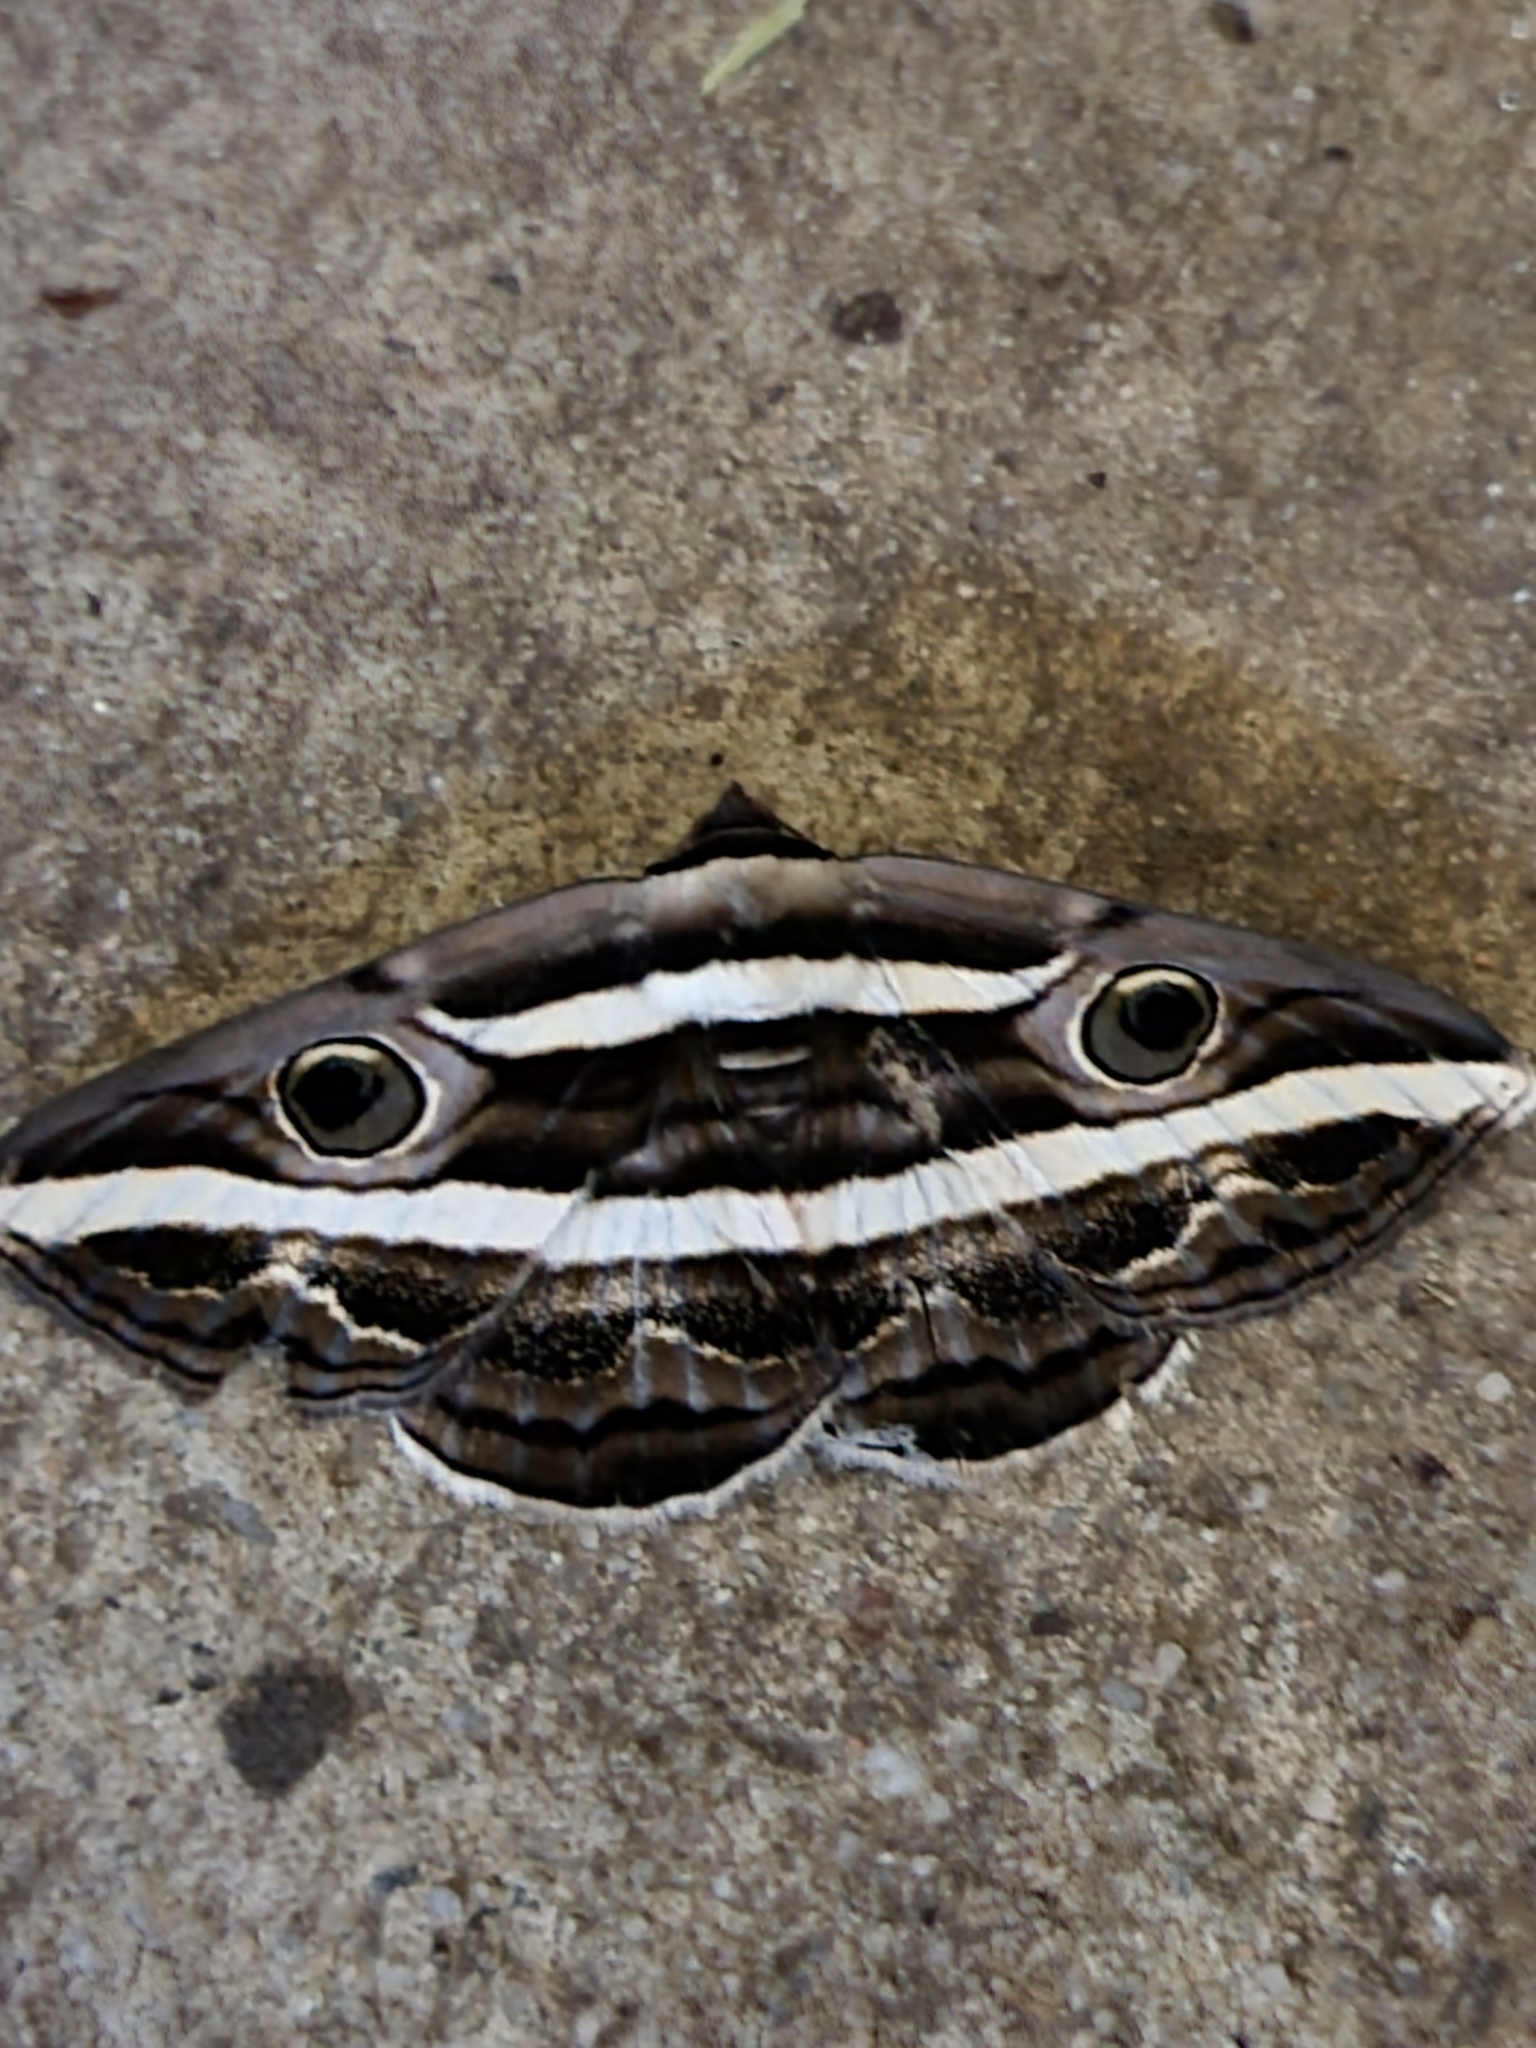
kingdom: Animalia
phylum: Arthropoda
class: Insecta
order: Lepidoptera
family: Erebidae
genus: Donuca
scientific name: Donuca rubropicta
